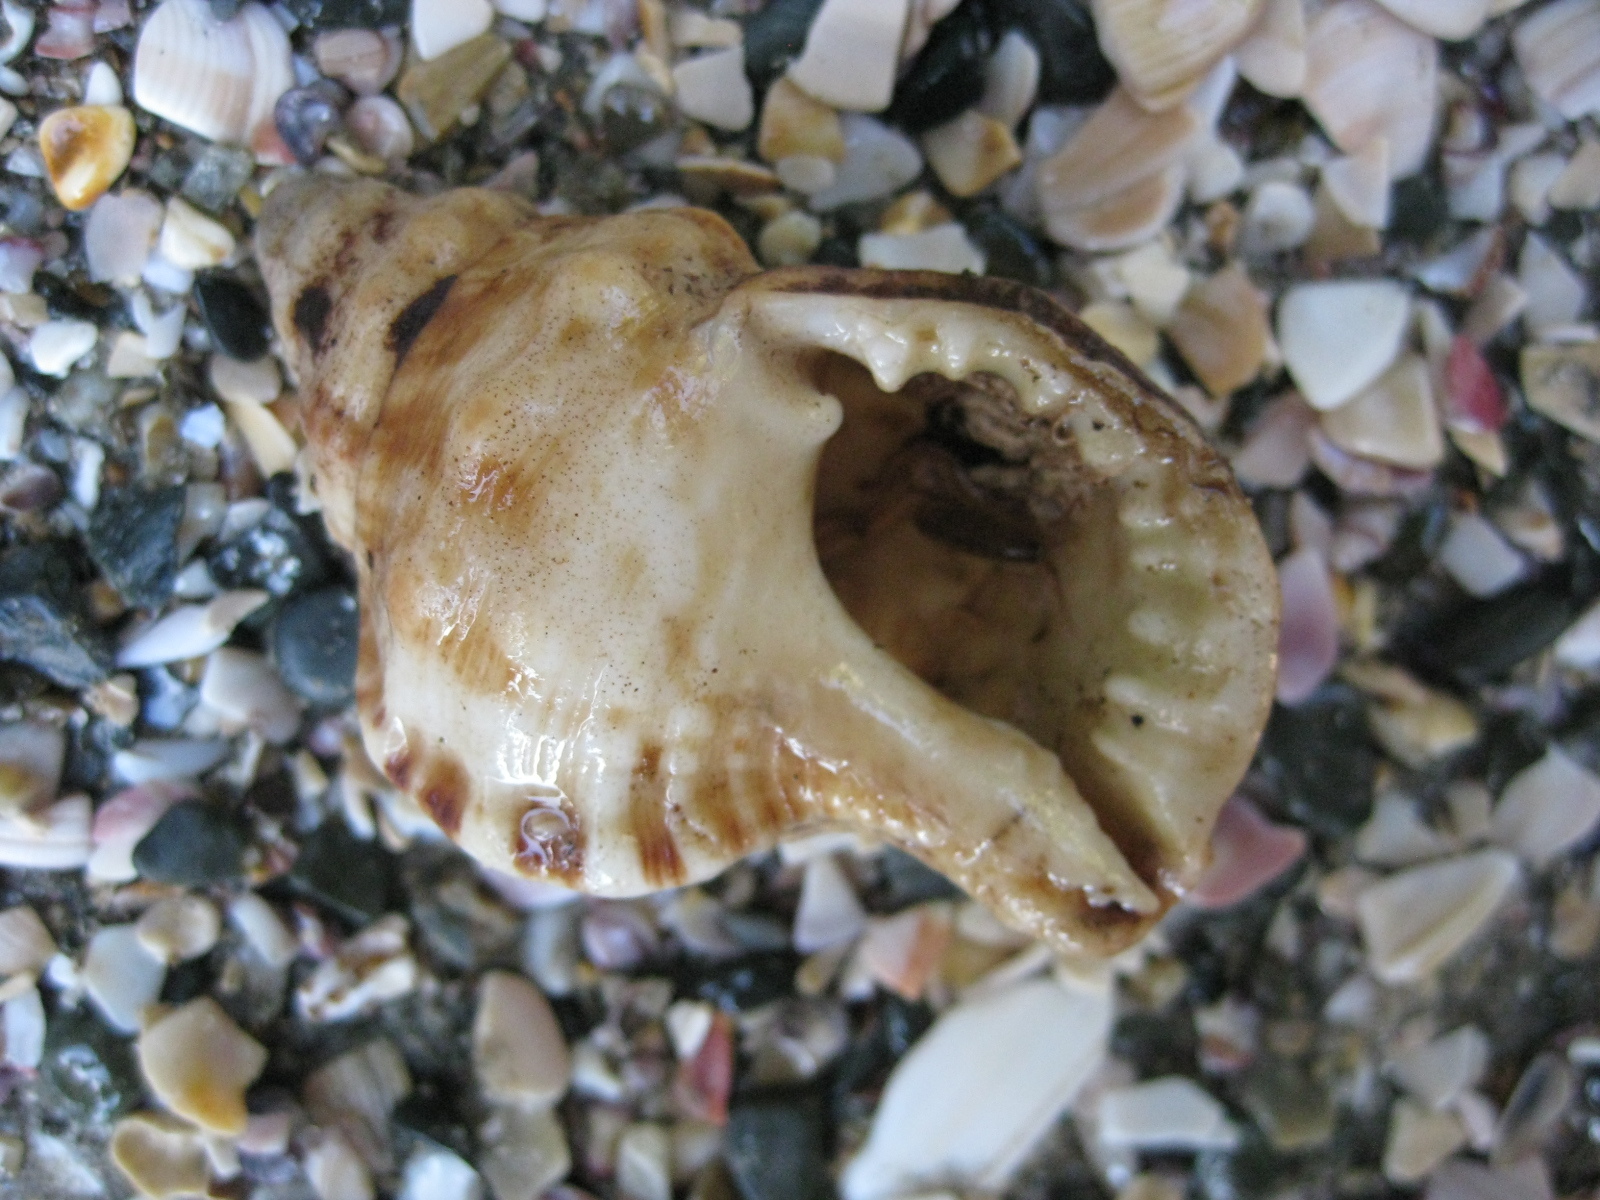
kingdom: Animalia
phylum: Mollusca
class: Gastropoda
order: Littorinimorpha
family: Ranellidae
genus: Ranella
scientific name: Ranella australasia
